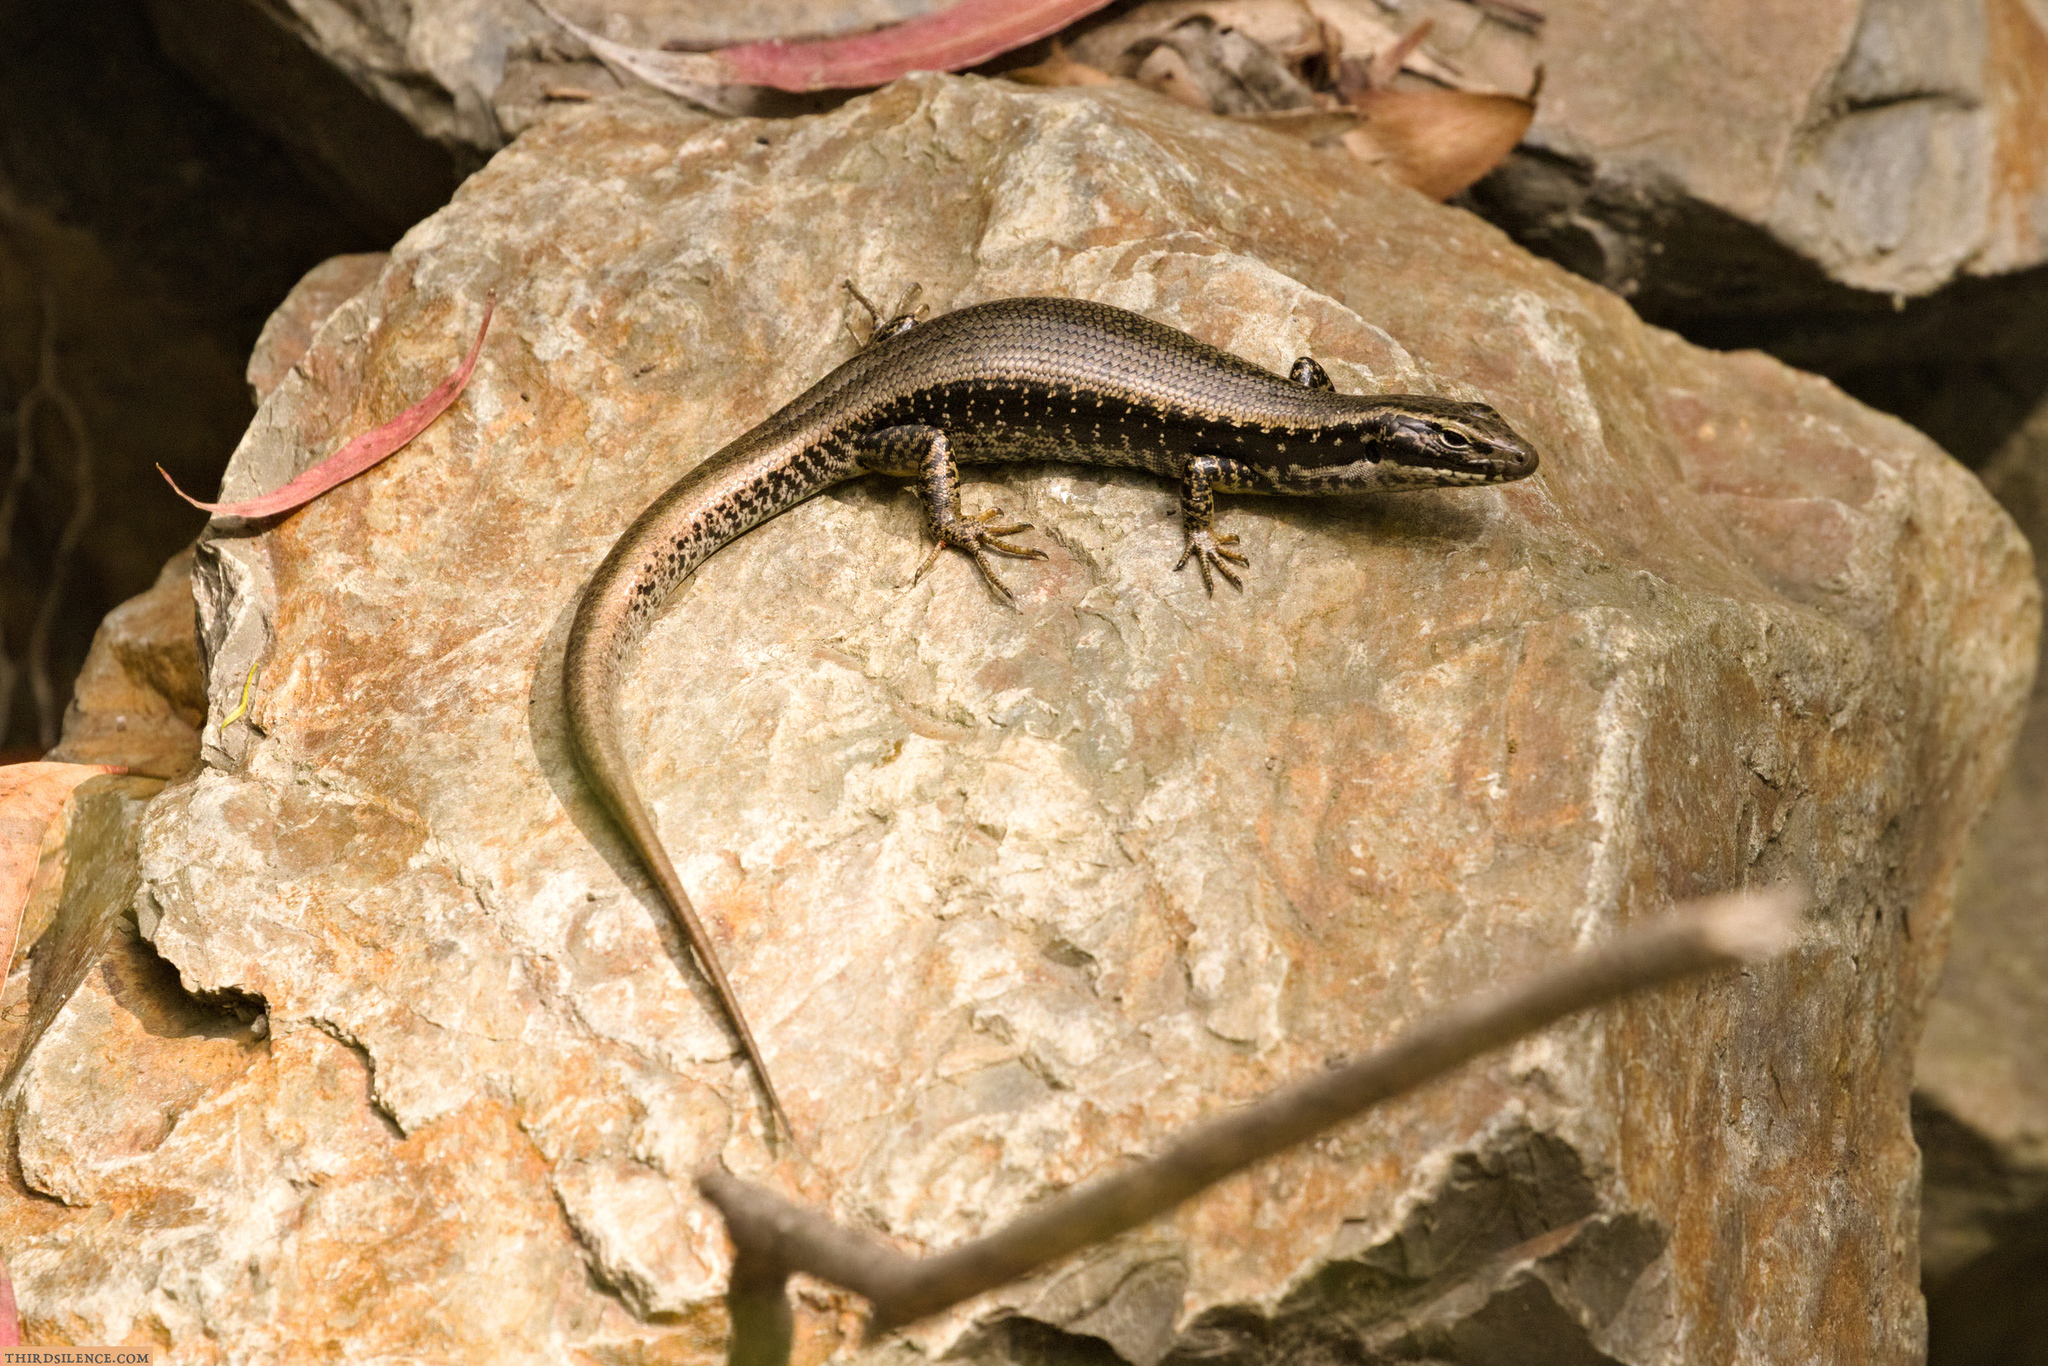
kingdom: Animalia
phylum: Chordata
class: Squamata
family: Scincidae
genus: Eulamprus
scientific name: Eulamprus heatwolei
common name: Warm-temperate water-skink
